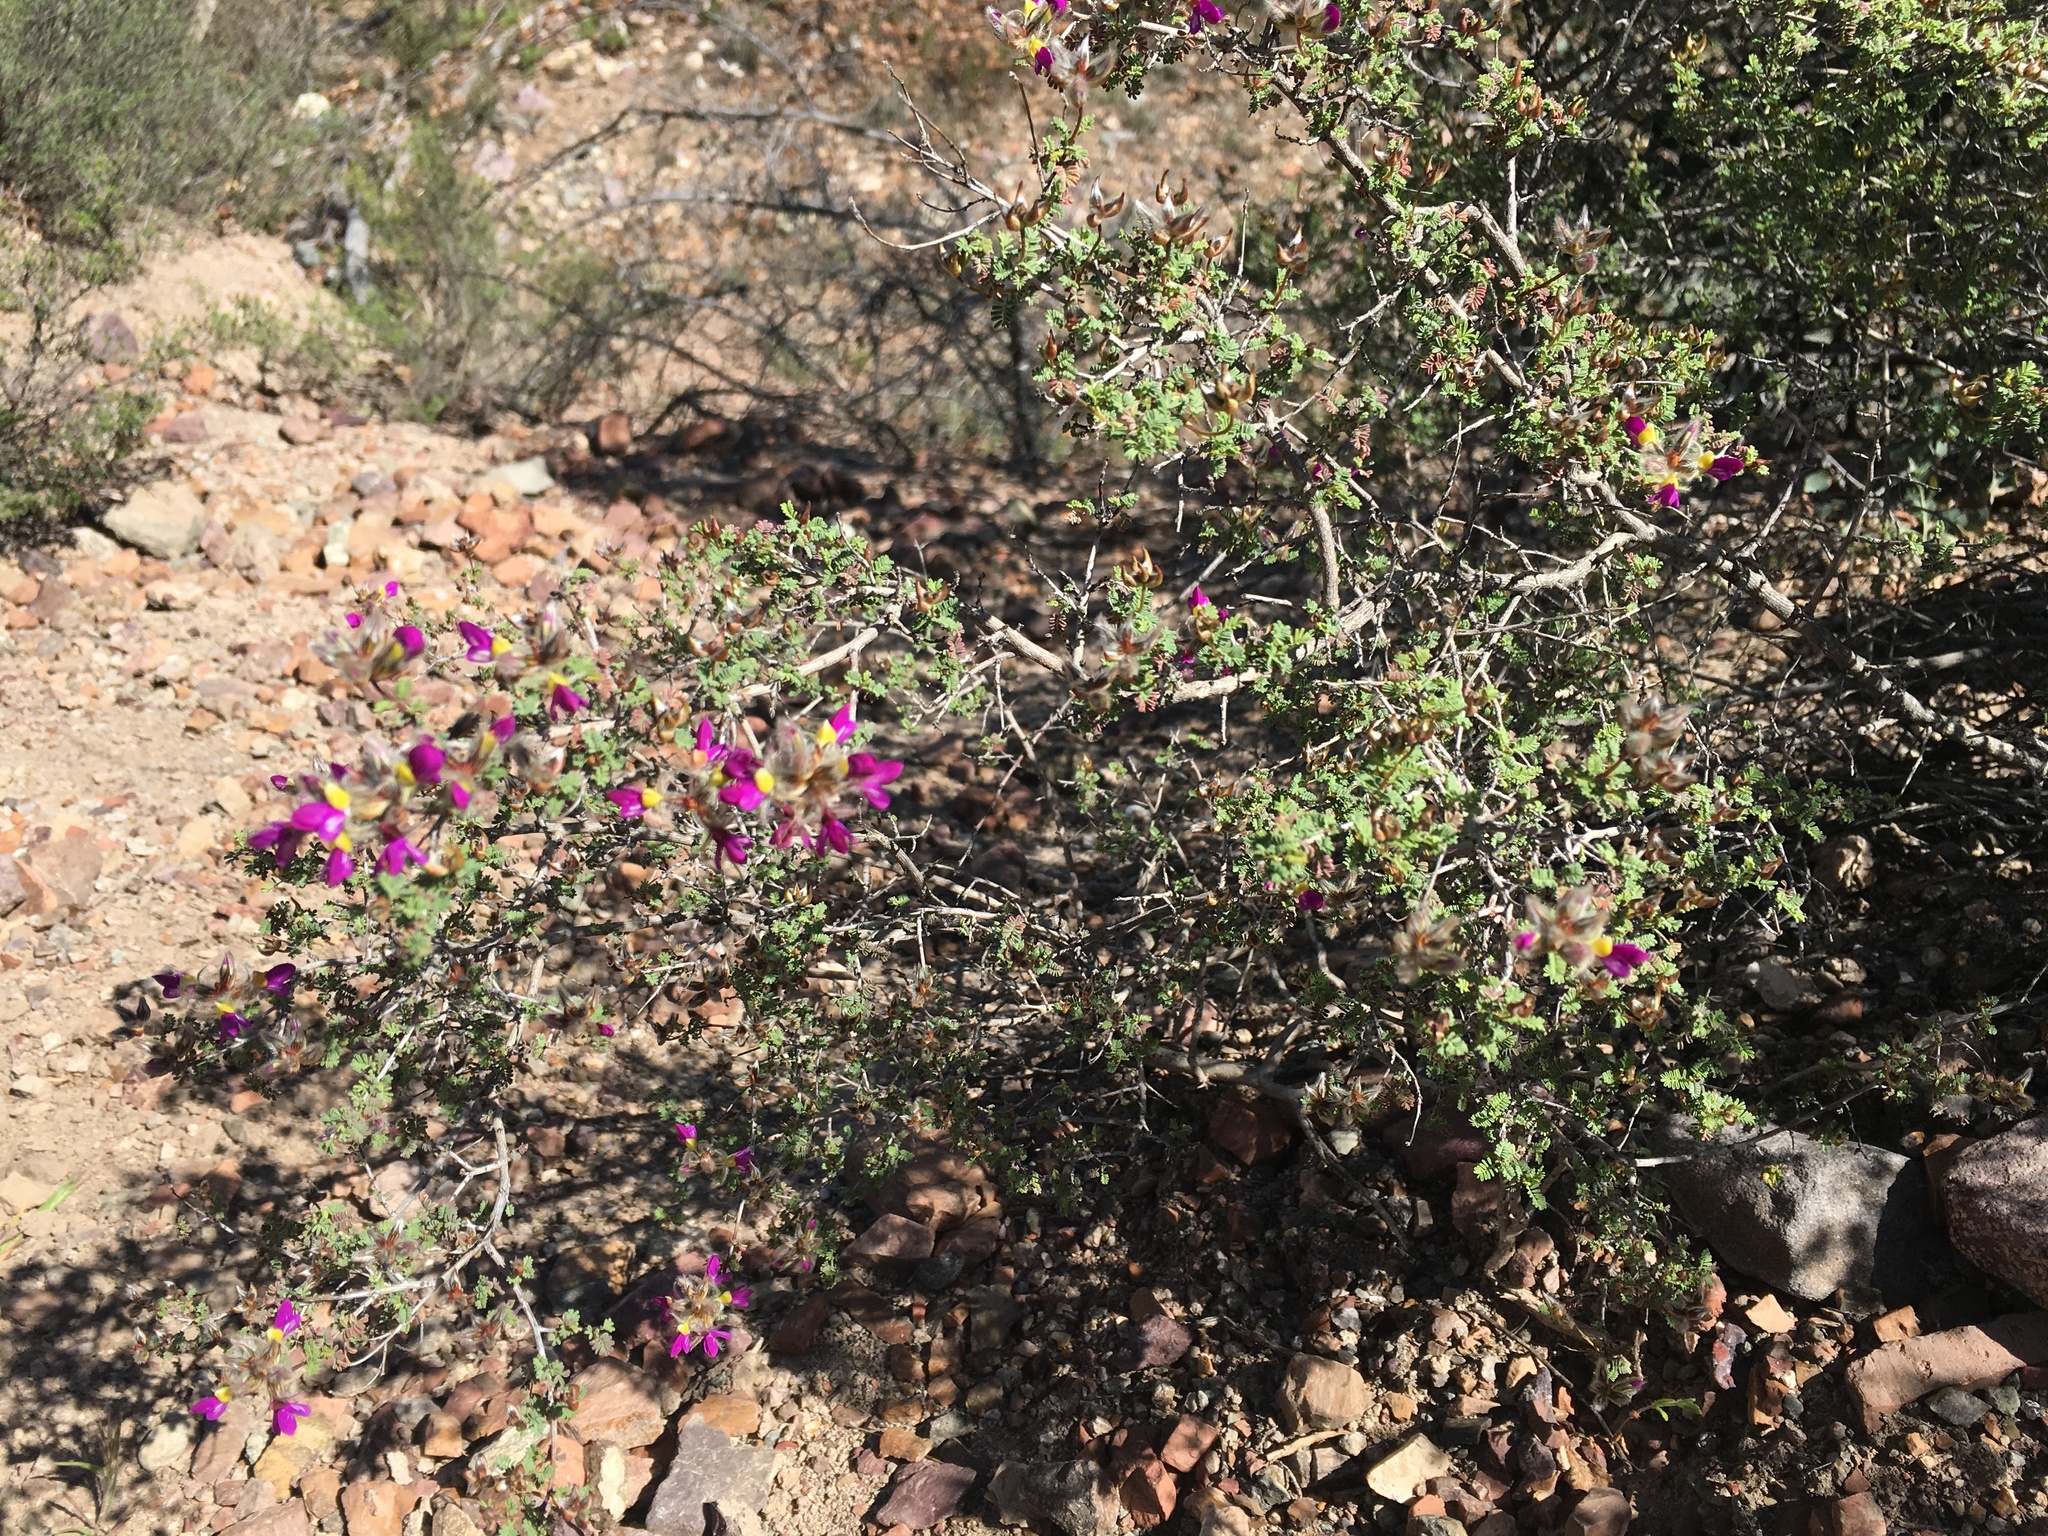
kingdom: Plantae
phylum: Tracheophyta
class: Magnoliopsida
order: Fabales
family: Fabaceae
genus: Dalea
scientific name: Dalea formosa
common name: Feather-plume dalea
